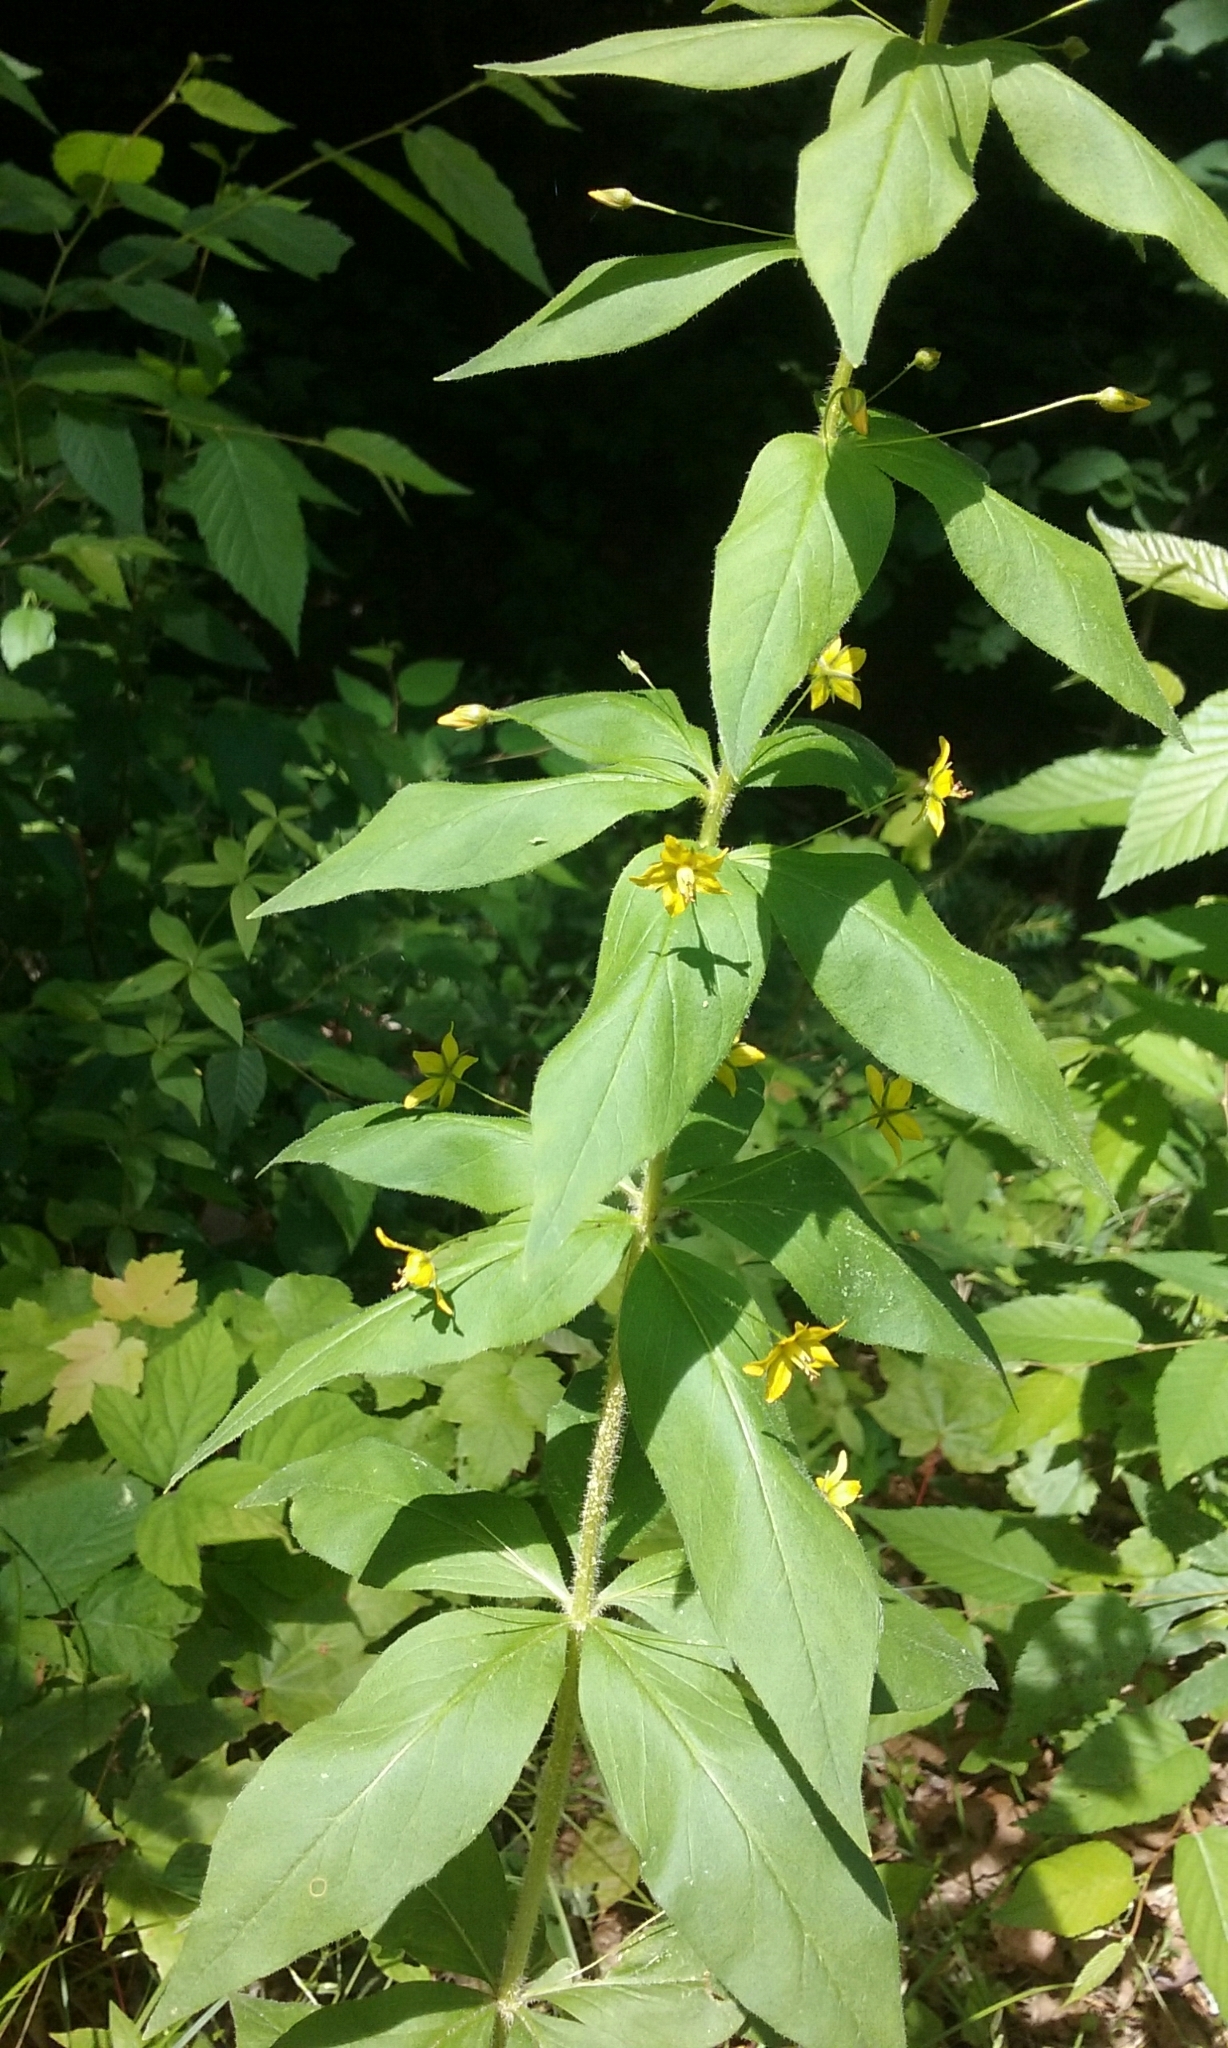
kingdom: Plantae
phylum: Tracheophyta
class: Magnoliopsida
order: Ericales
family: Primulaceae
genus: Lysimachia
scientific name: Lysimachia quadrifolia
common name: Whorled loosestrife
